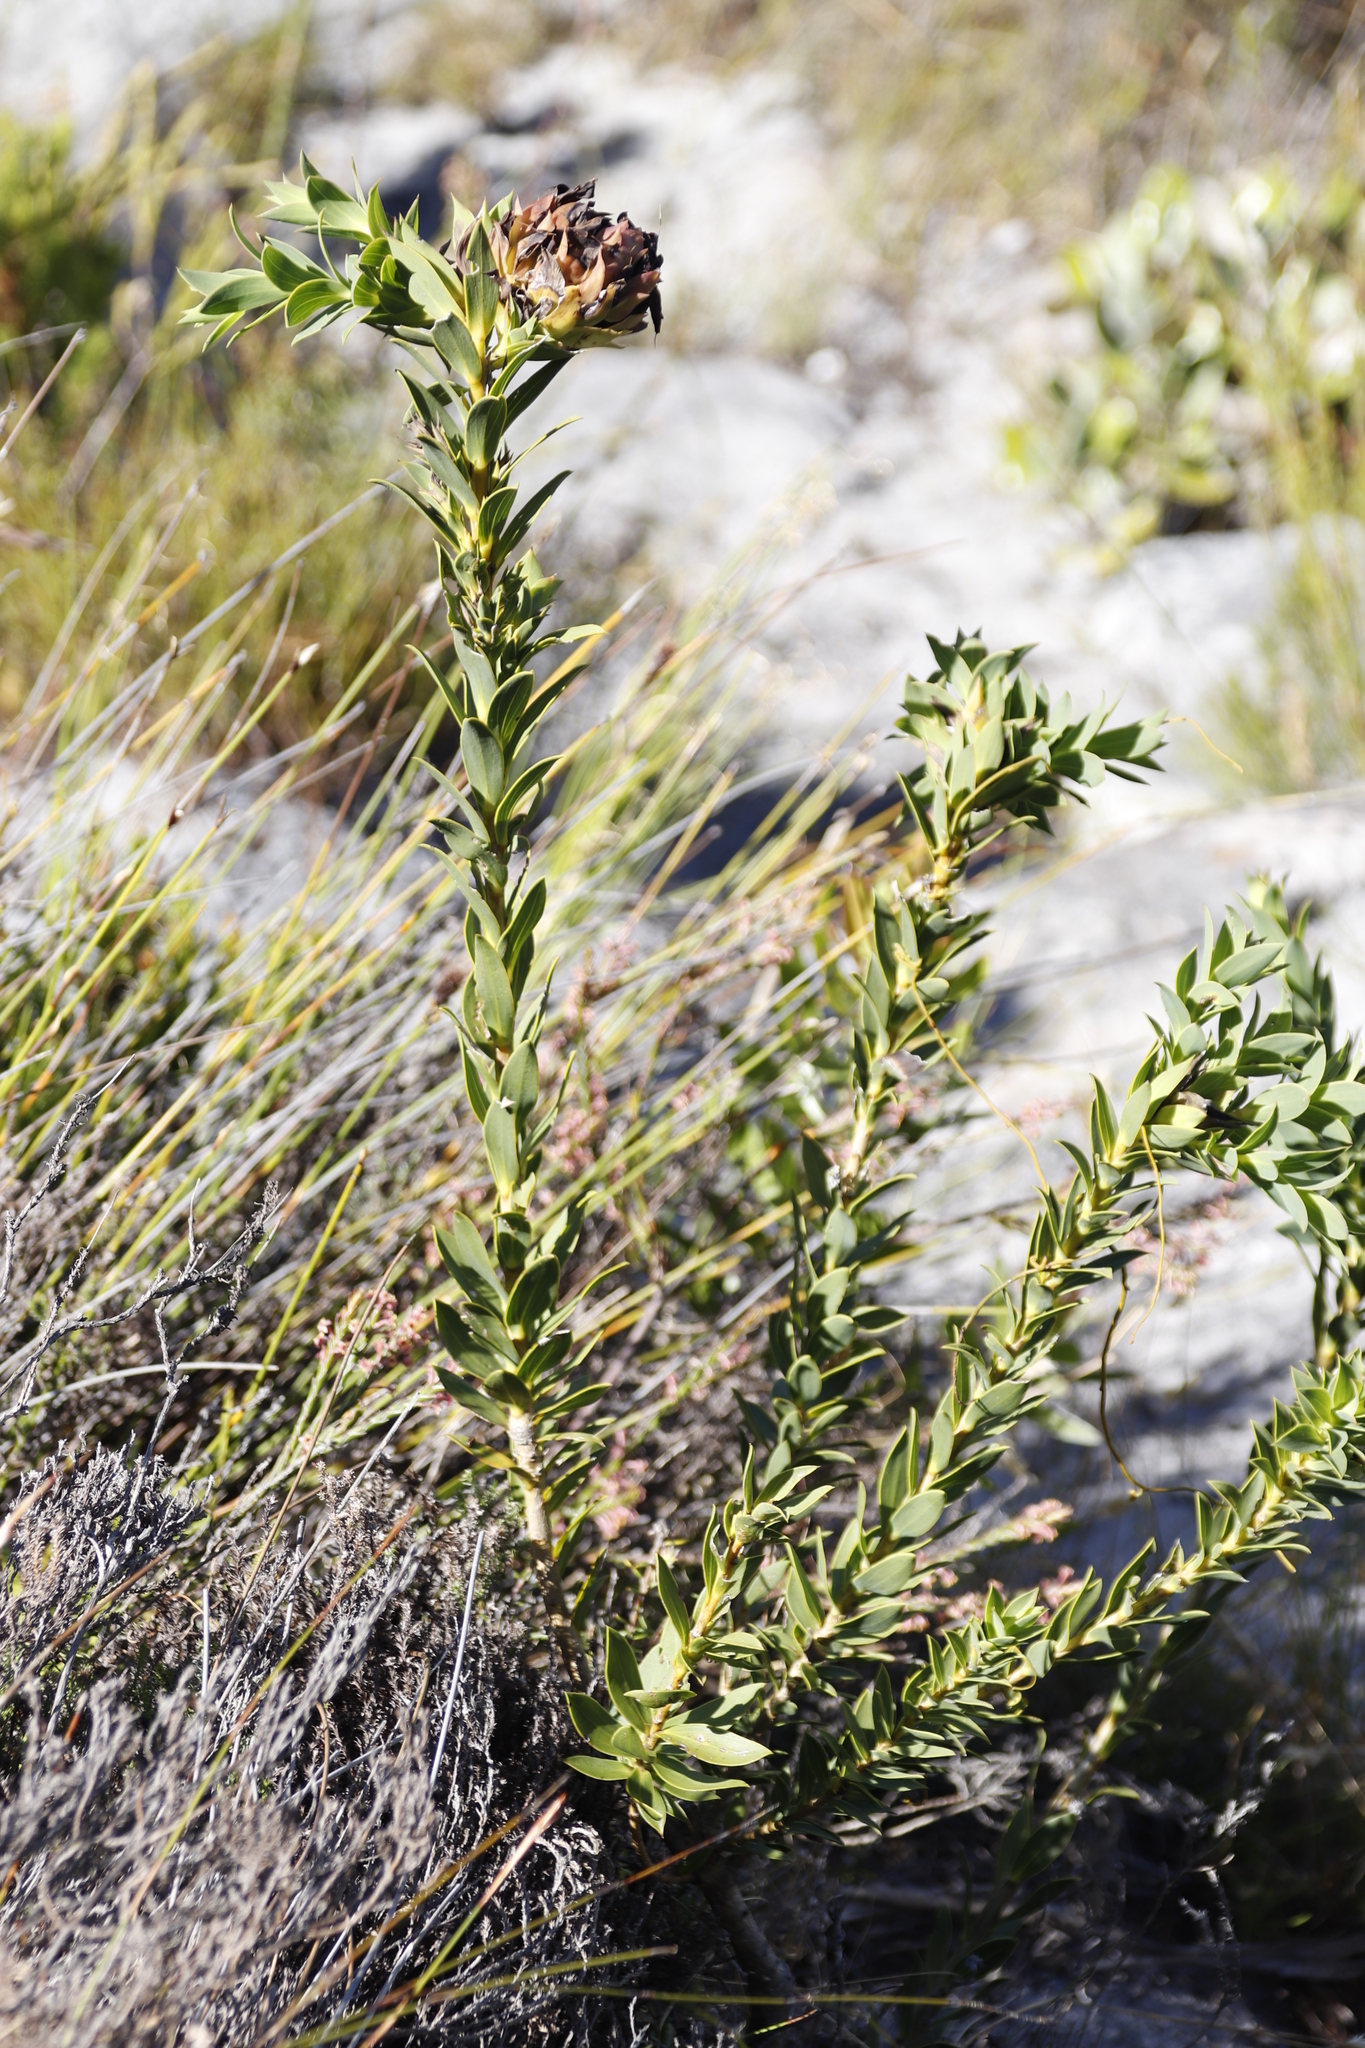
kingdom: Plantae
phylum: Tracheophyta
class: Magnoliopsida
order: Fabales
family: Fabaceae
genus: Liparia
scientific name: Liparia splendens
